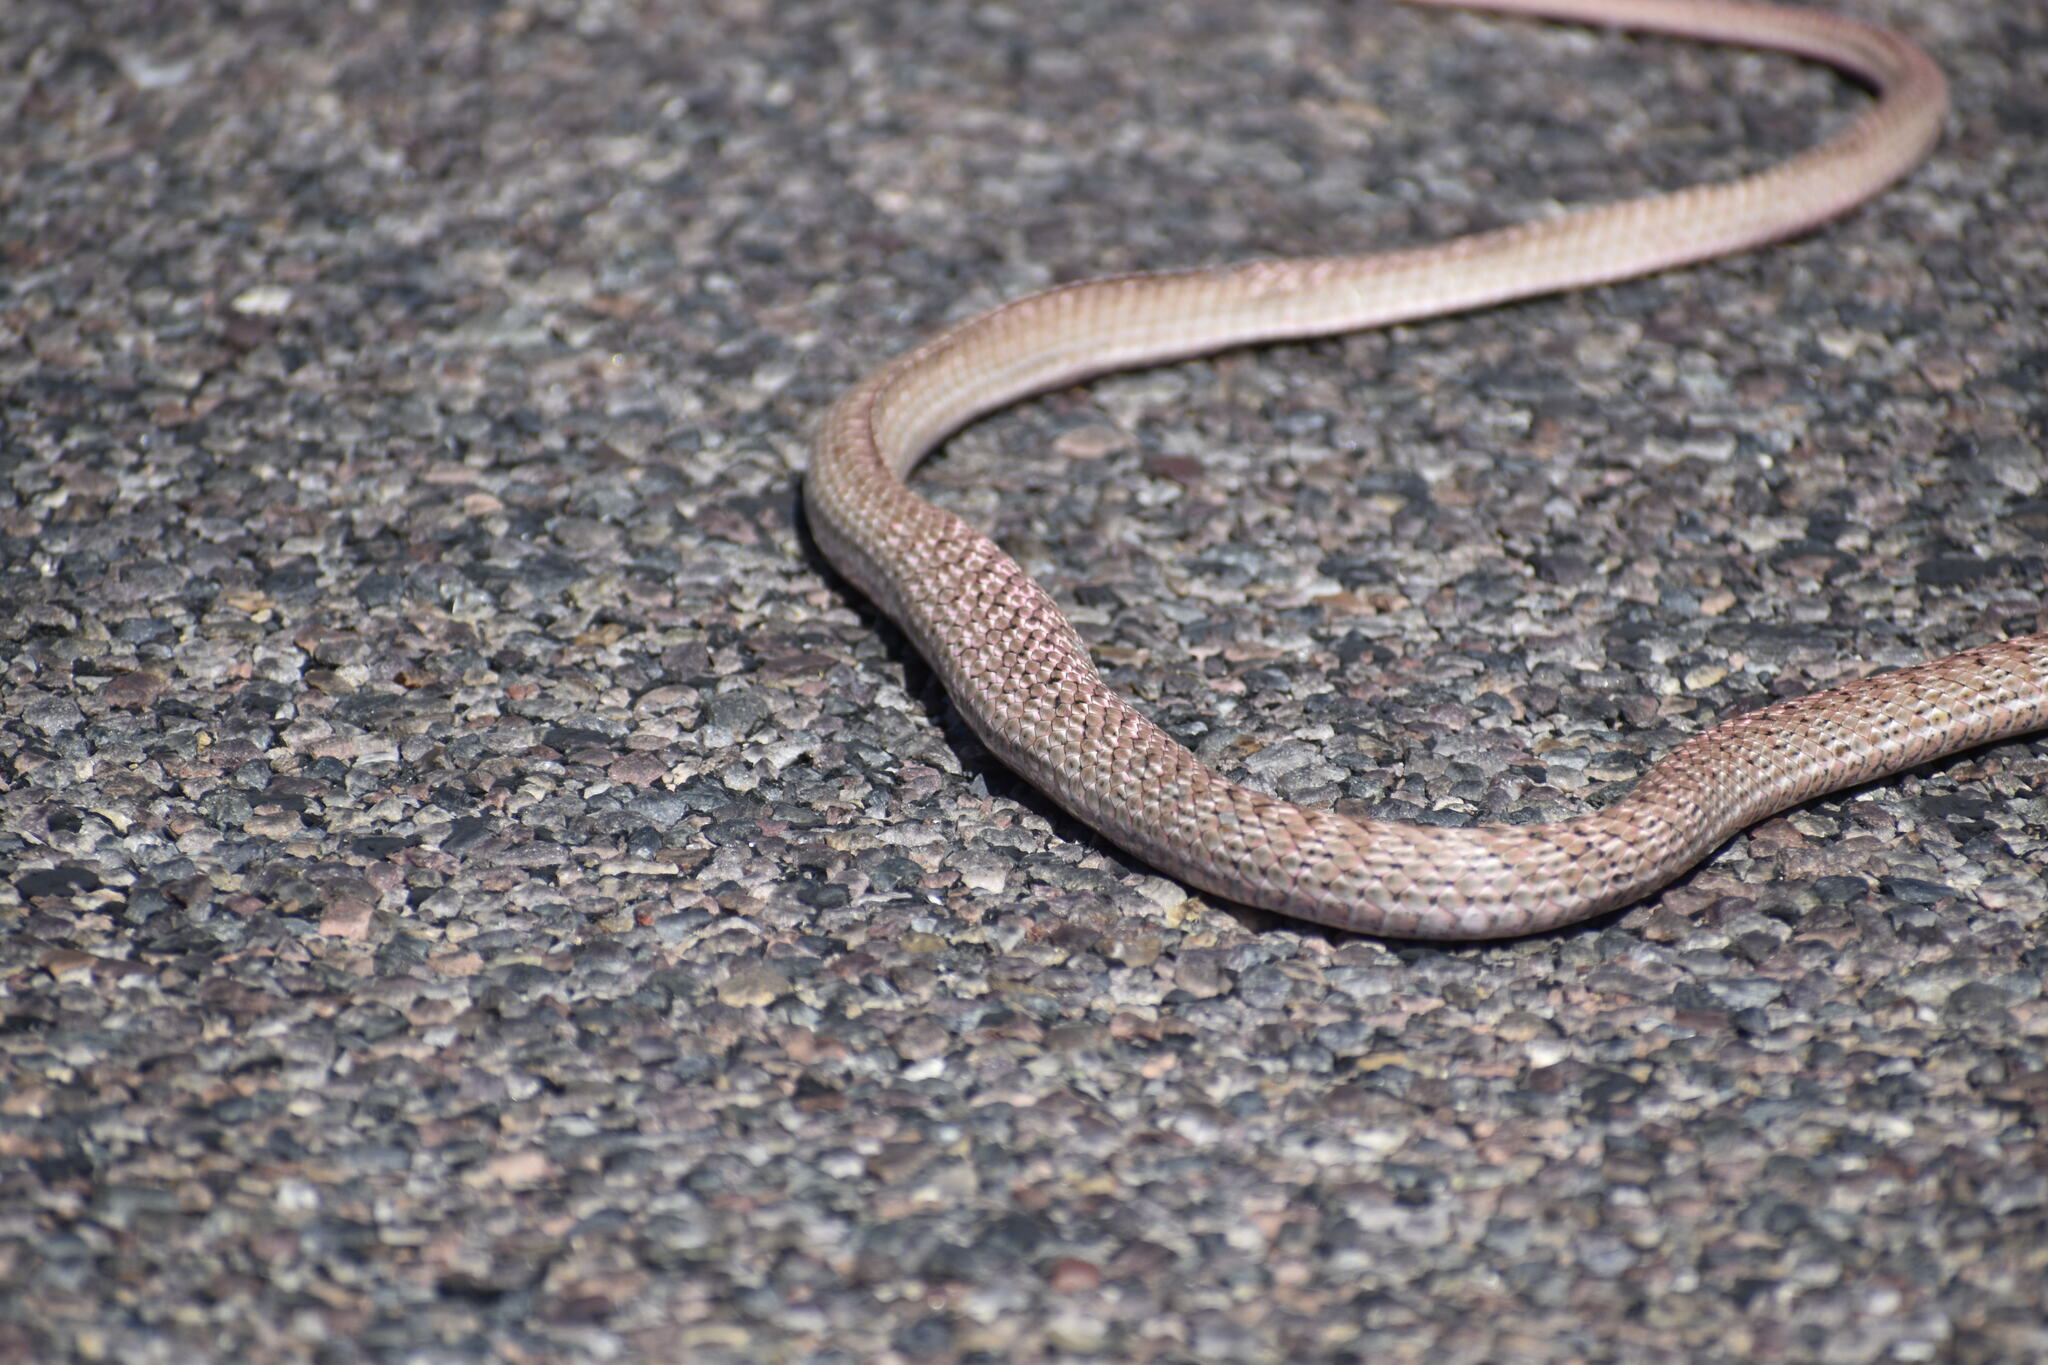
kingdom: Animalia
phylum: Chordata
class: Squamata
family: Colubridae
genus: Masticophis
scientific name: Masticophis flagellum
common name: Coachwhip
